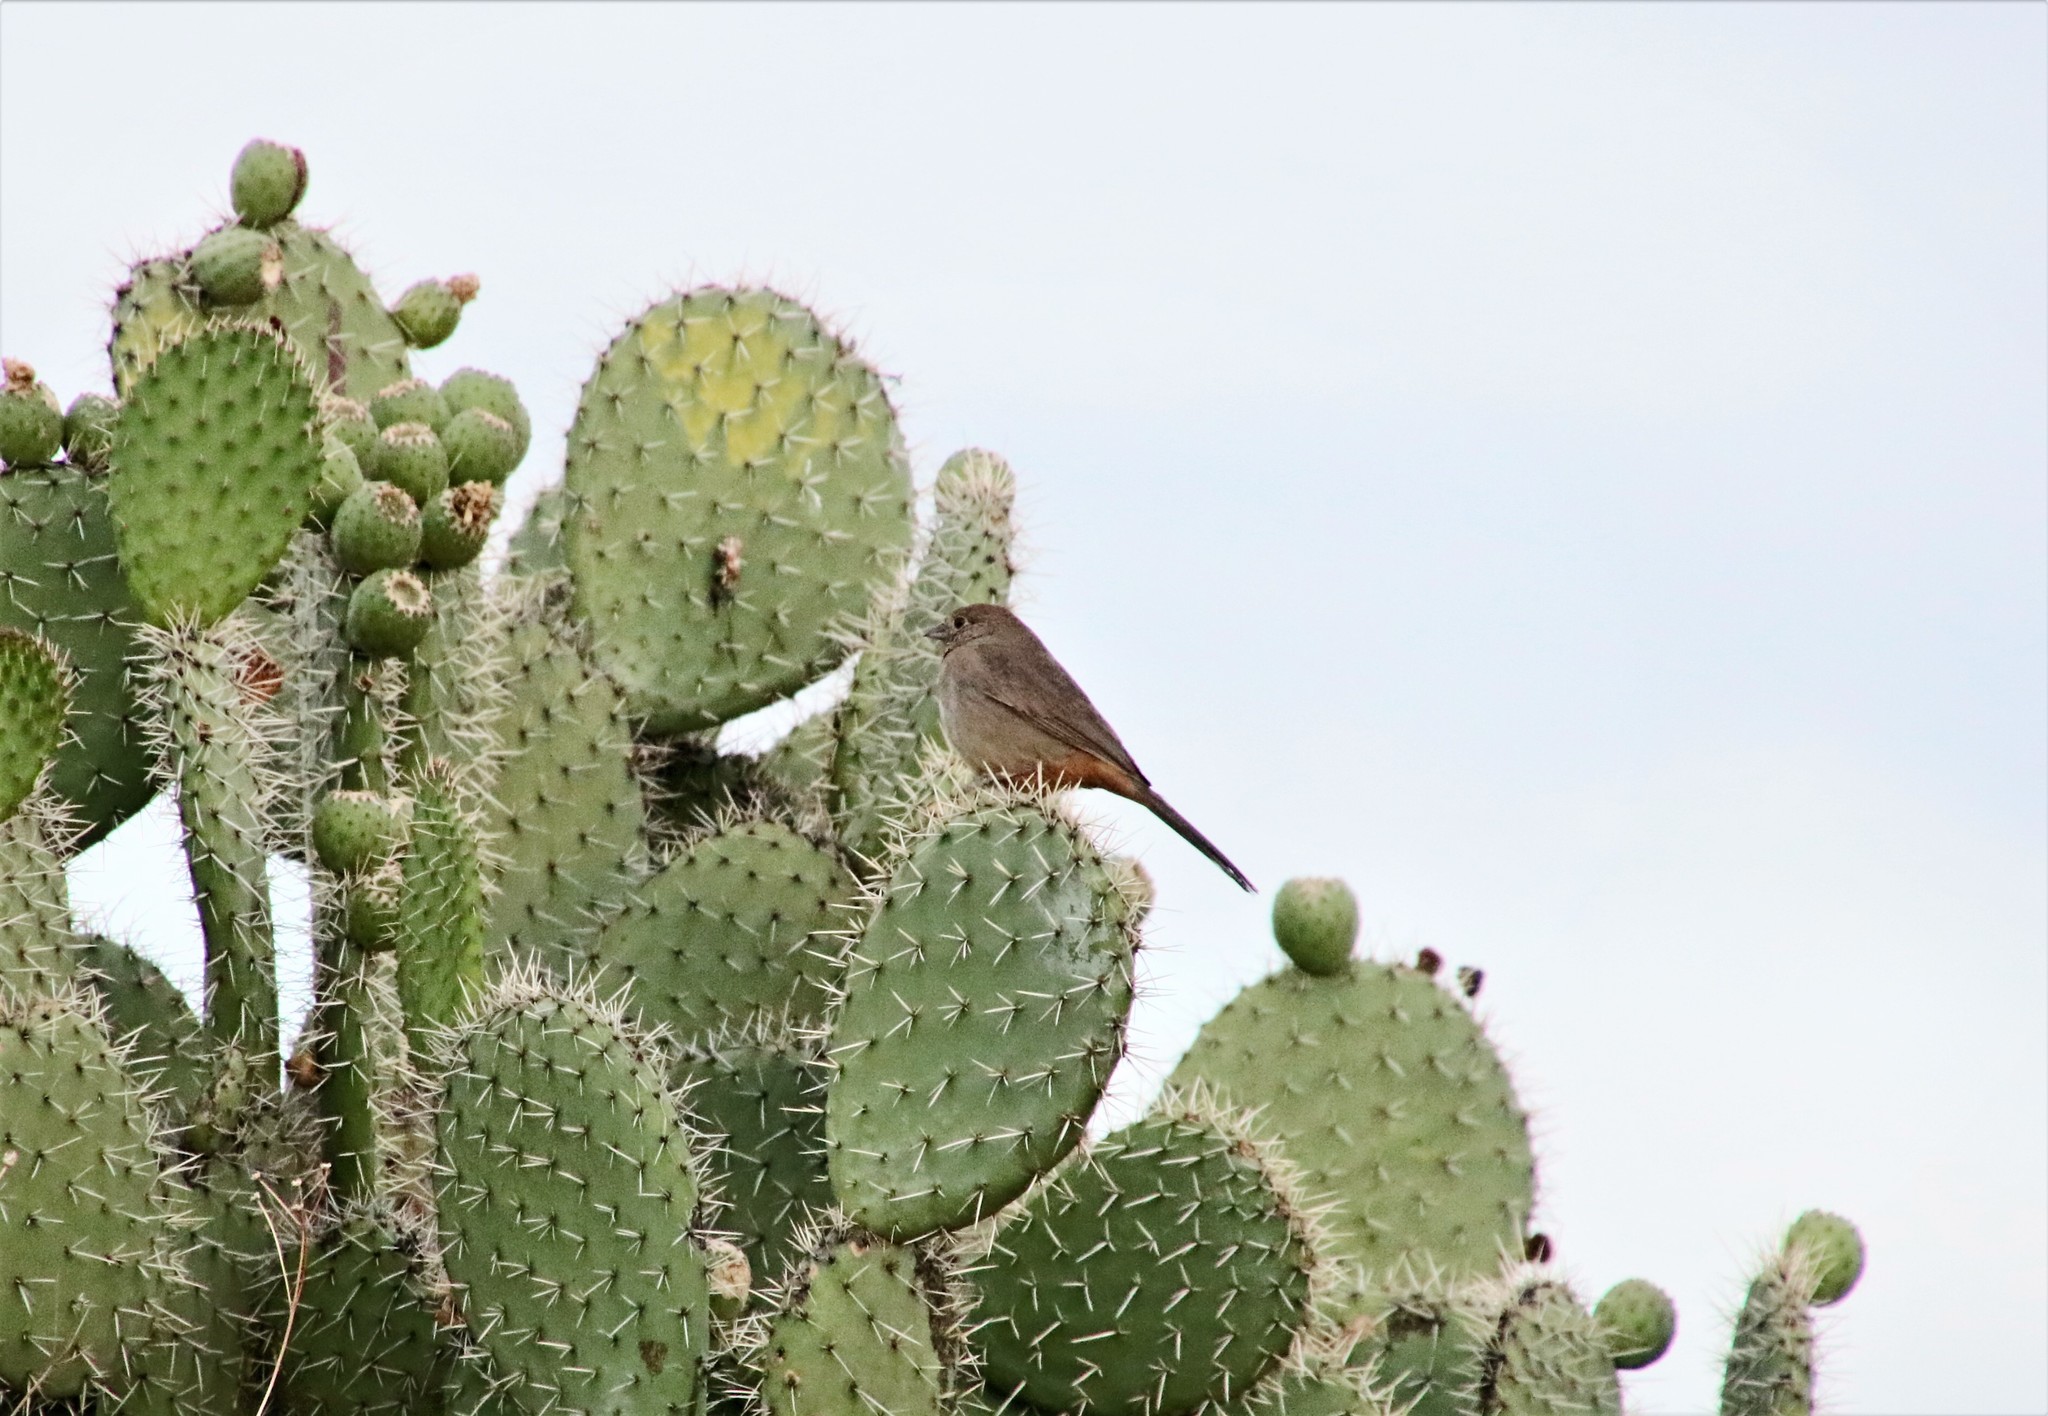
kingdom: Animalia
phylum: Chordata
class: Aves
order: Passeriformes
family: Passerellidae
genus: Melozone
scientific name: Melozone fusca
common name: Canyon towhee
